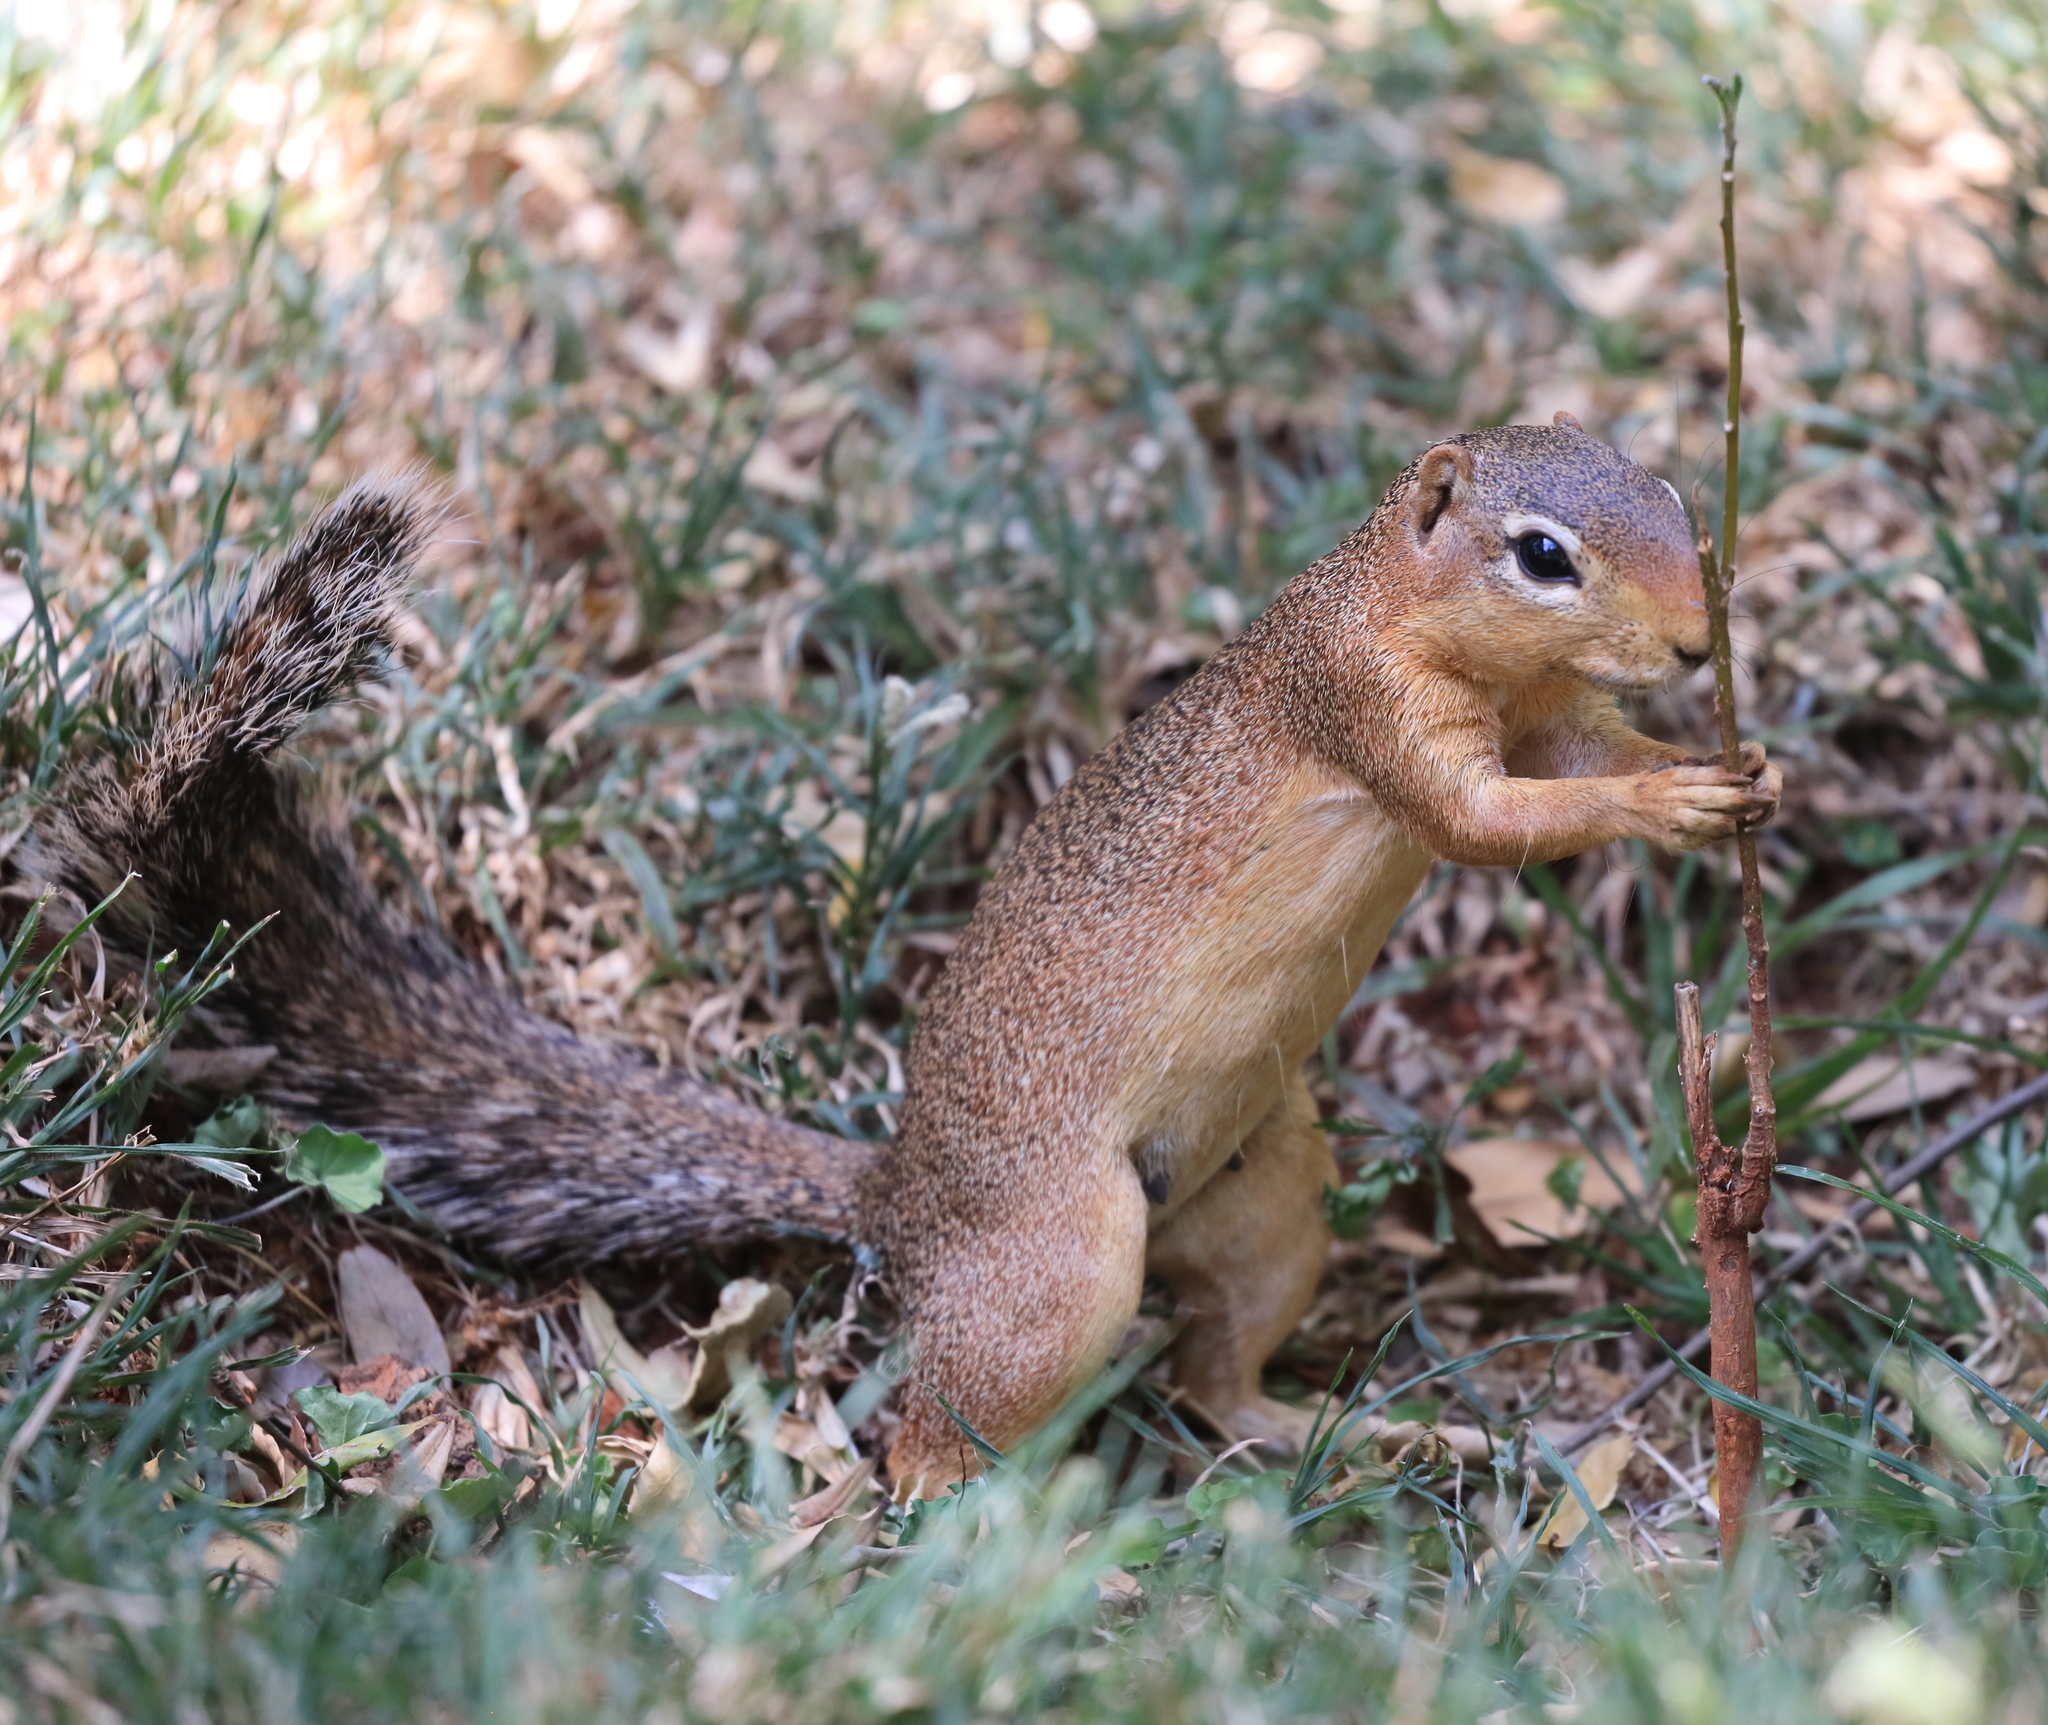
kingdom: Animalia
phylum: Chordata
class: Mammalia
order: Rodentia
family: Sciuridae
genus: Xerus
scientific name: Xerus rutilus
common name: Unstriped ground squirrel
